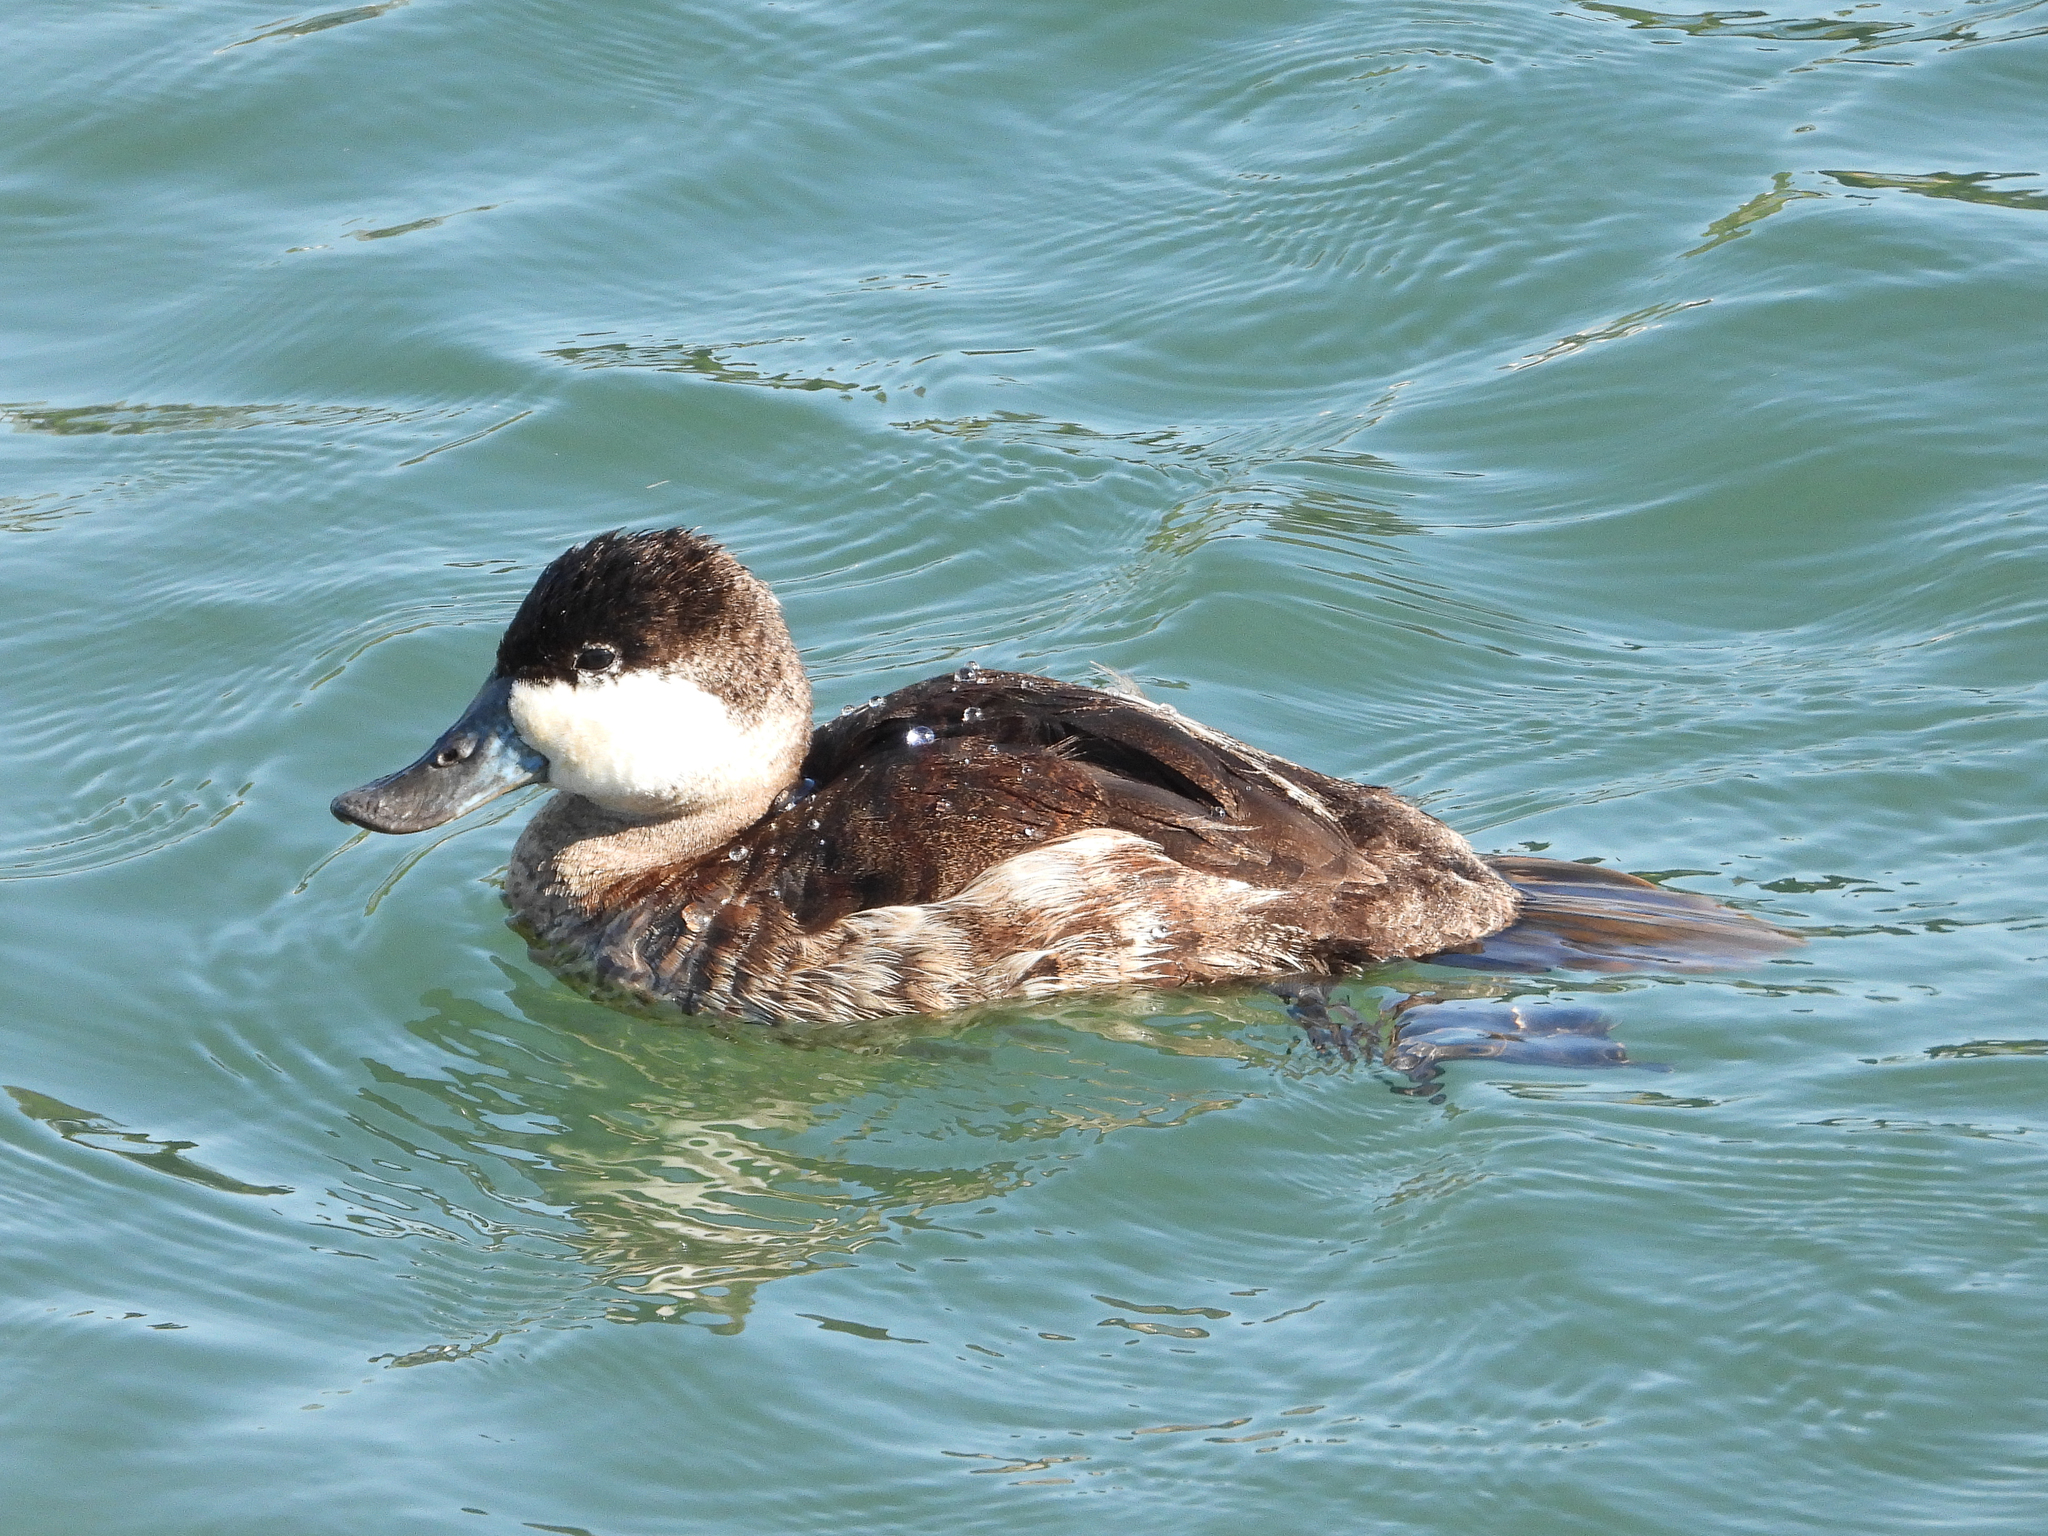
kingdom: Animalia
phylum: Chordata
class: Aves
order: Anseriformes
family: Anatidae
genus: Oxyura
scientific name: Oxyura jamaicensis
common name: Ruddy duck
